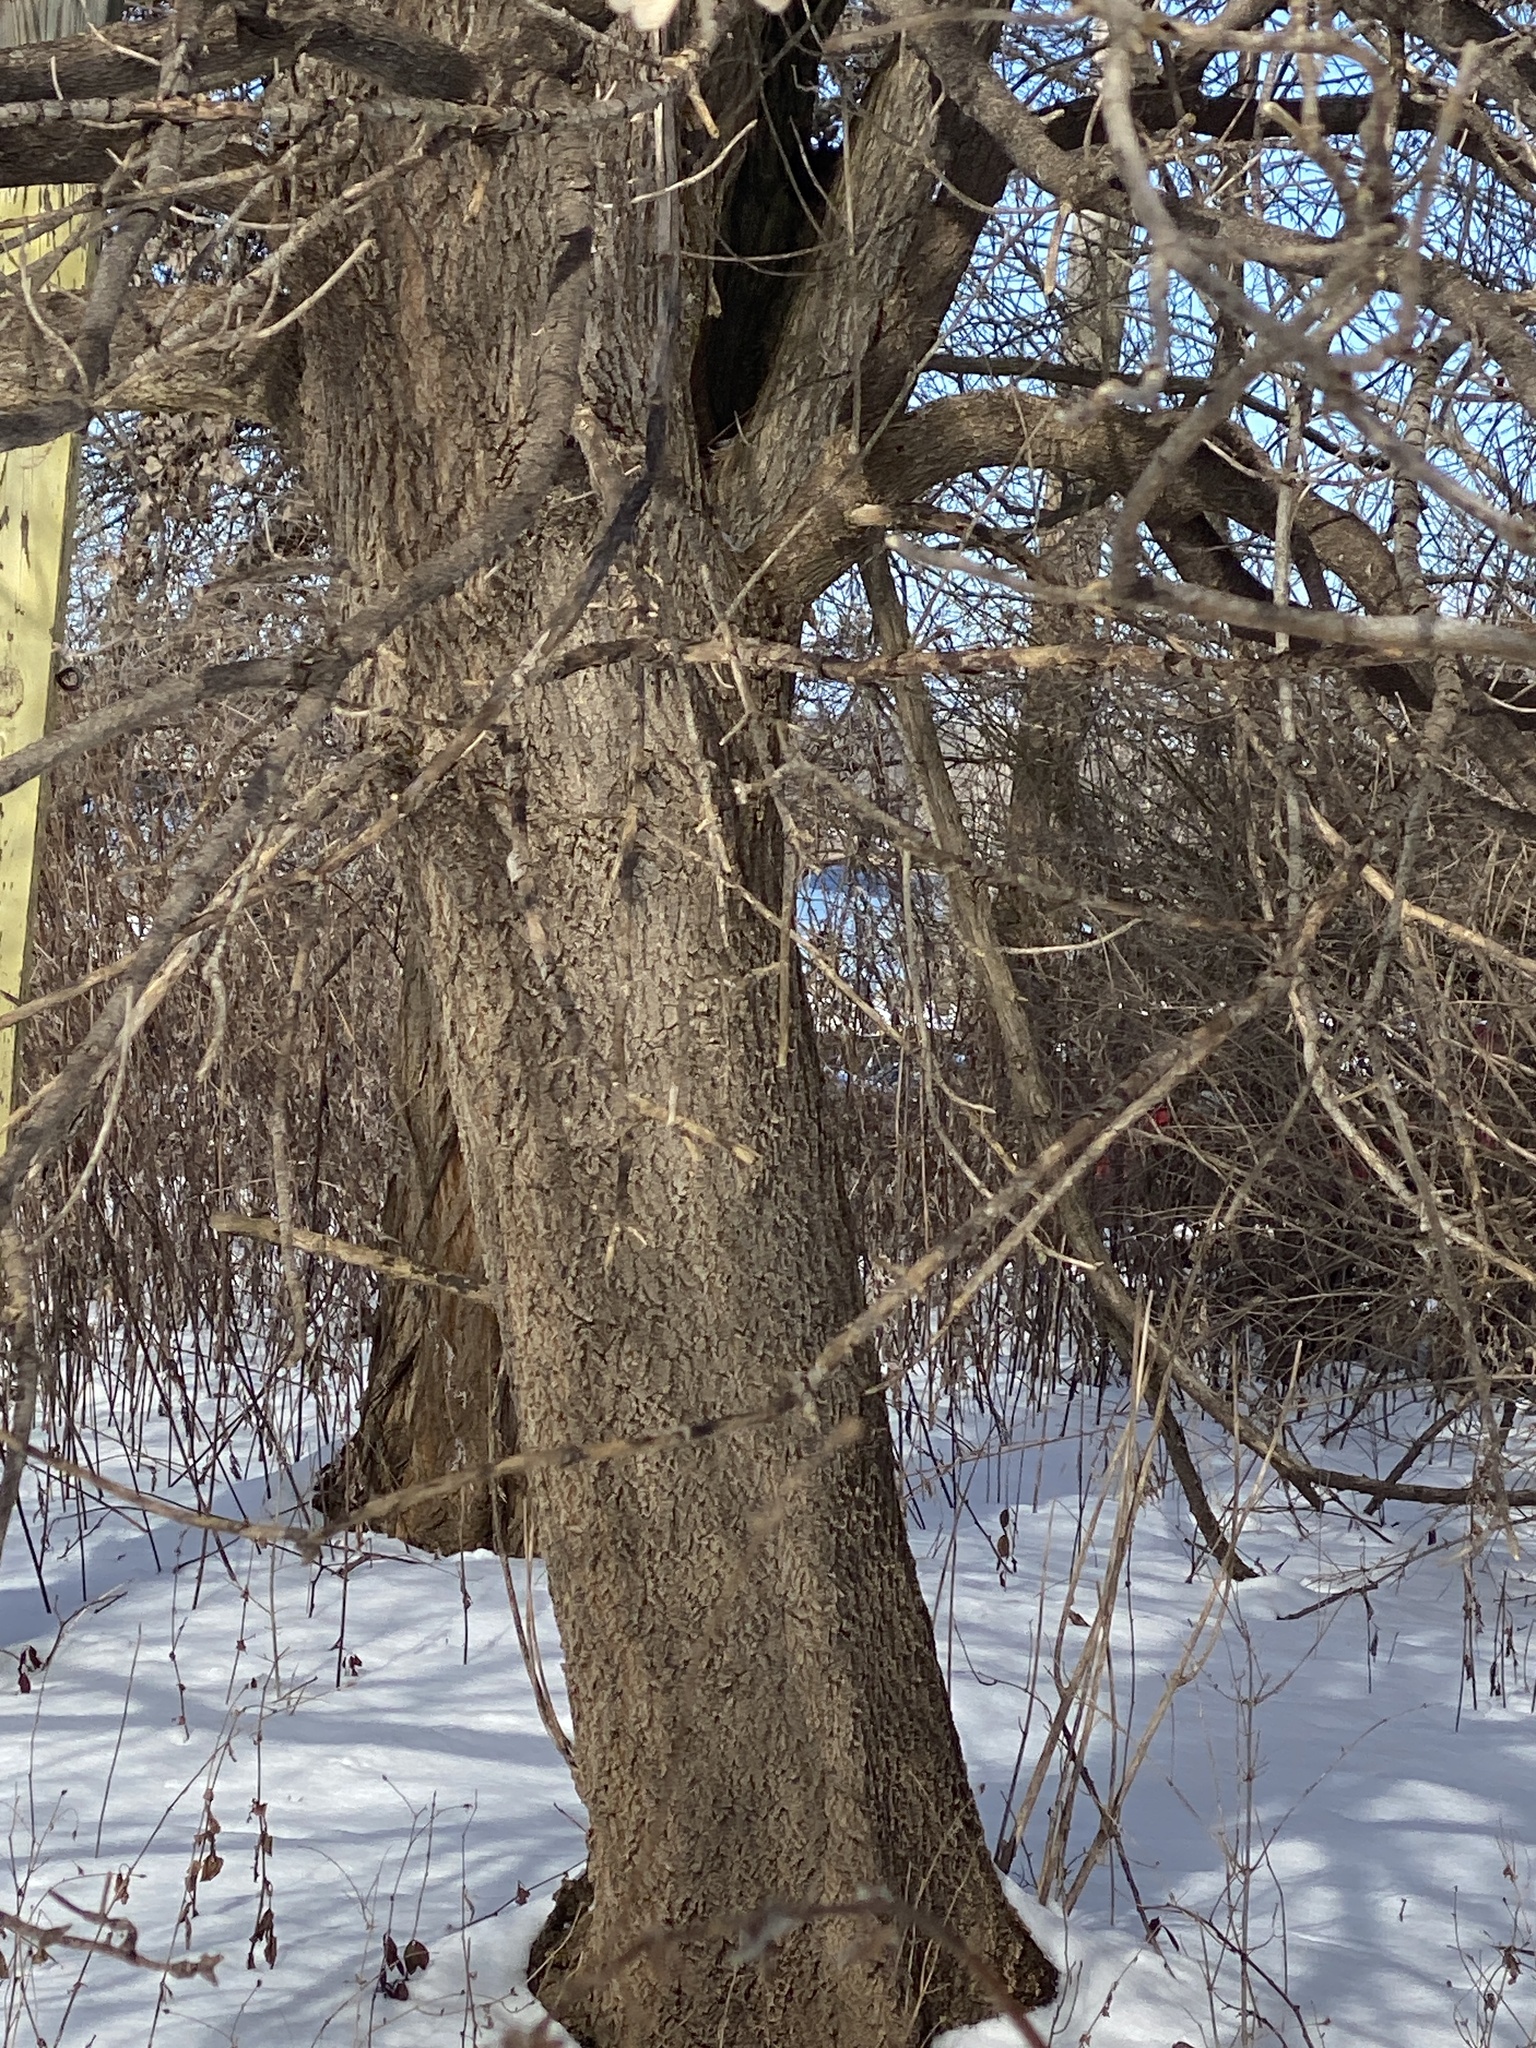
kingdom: Plantae
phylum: Tracheophyta
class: Magnoliopsida
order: Sapindales
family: Sapindaceae
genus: Acer
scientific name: Acer negundo
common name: Ashleaf maple
